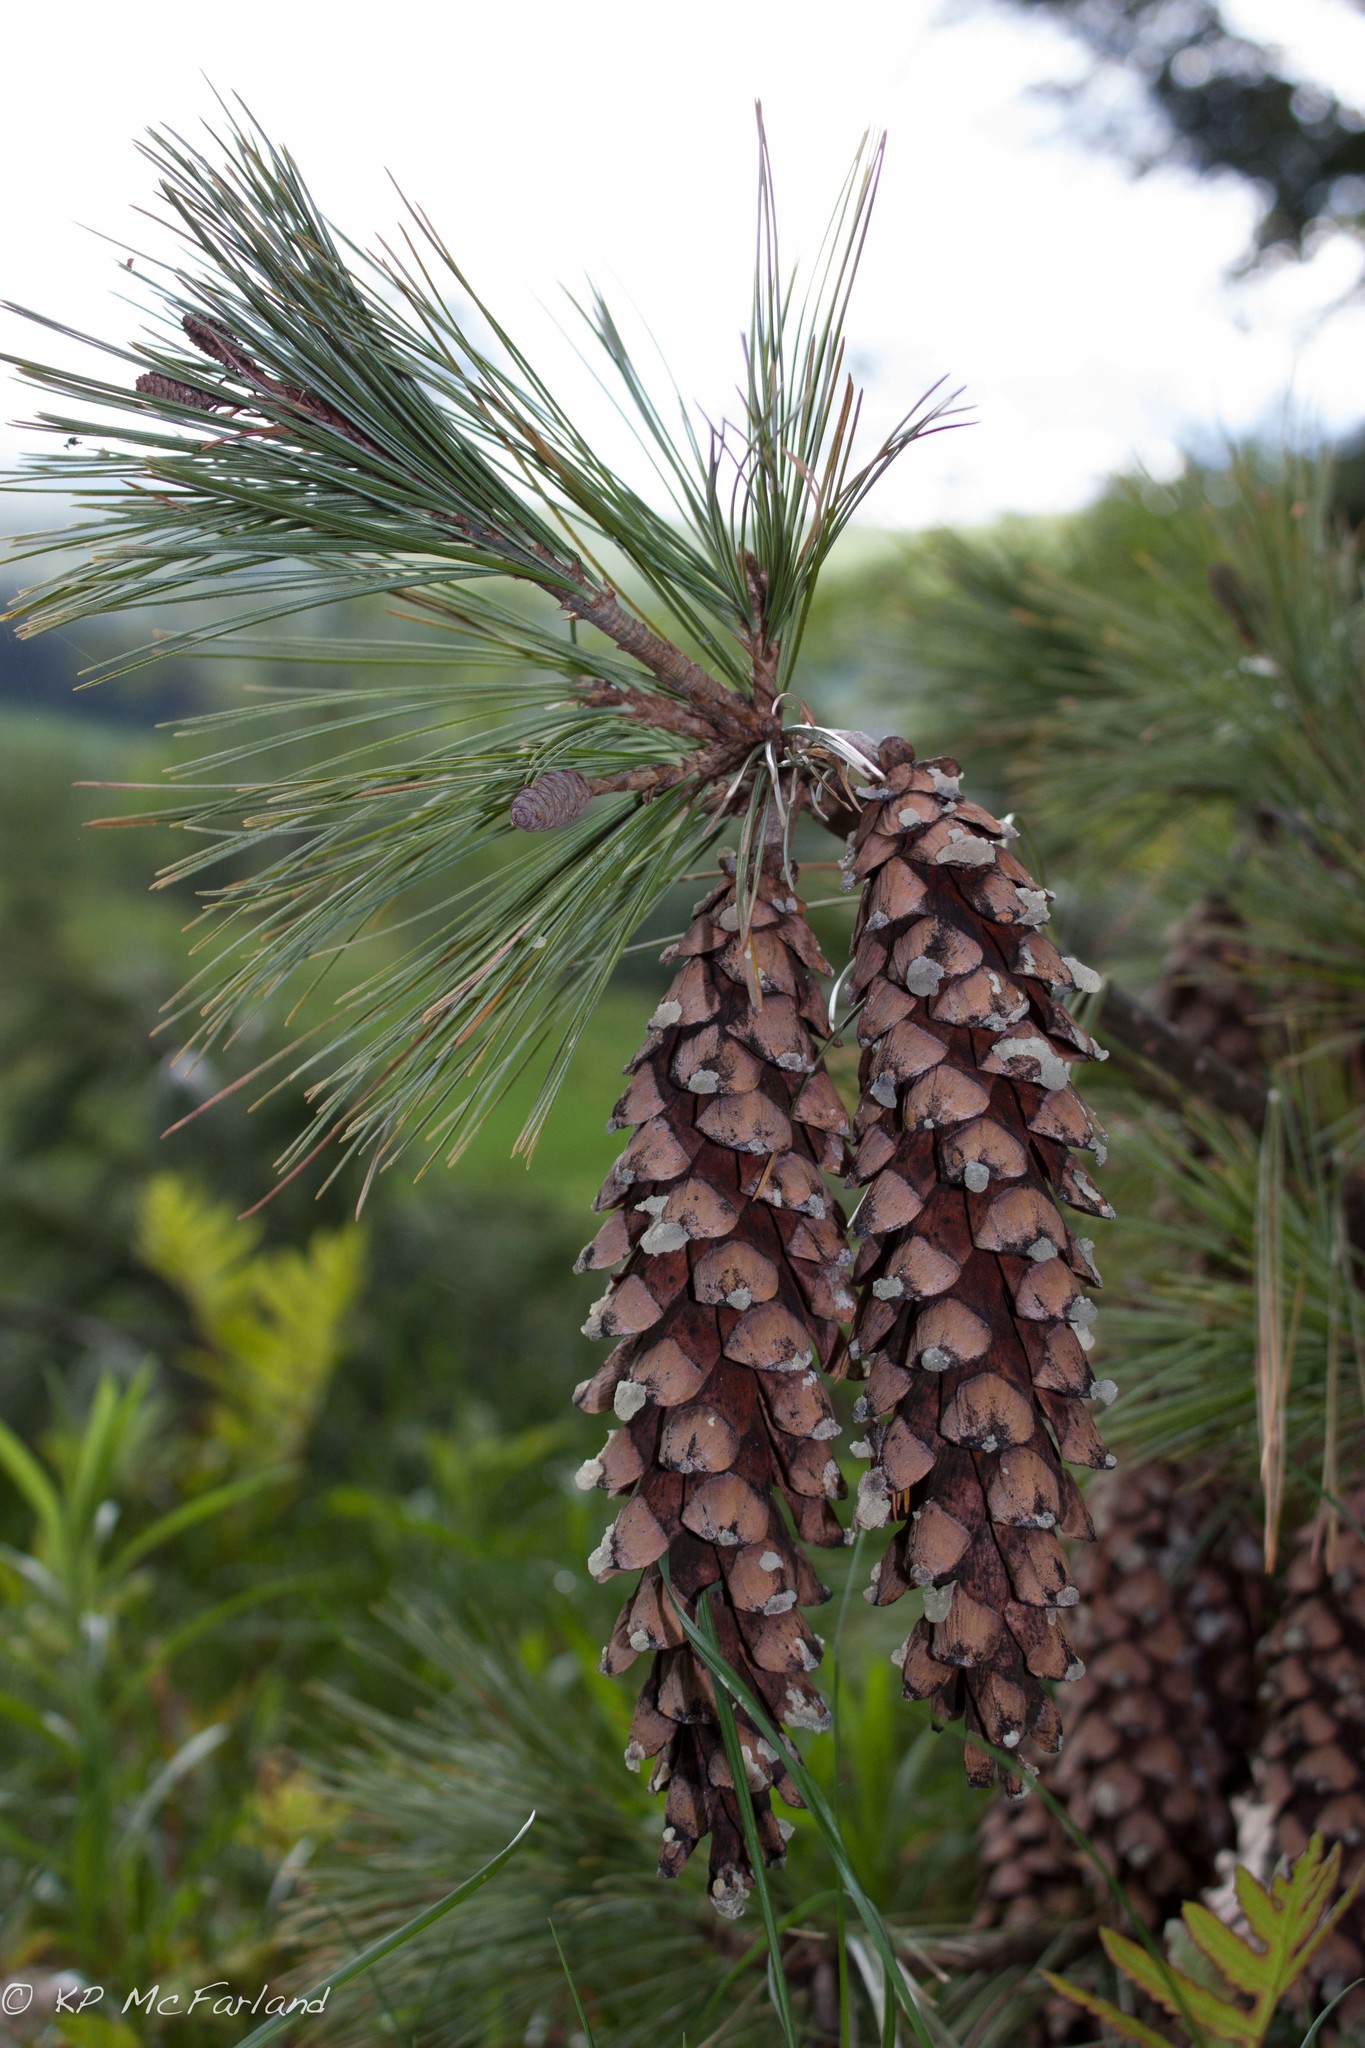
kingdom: Plantae
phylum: Tracheophyta
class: Pinopsida
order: Pinales
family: Pinaceae
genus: Pinus
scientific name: Pinus strobus
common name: Weymouth pine
